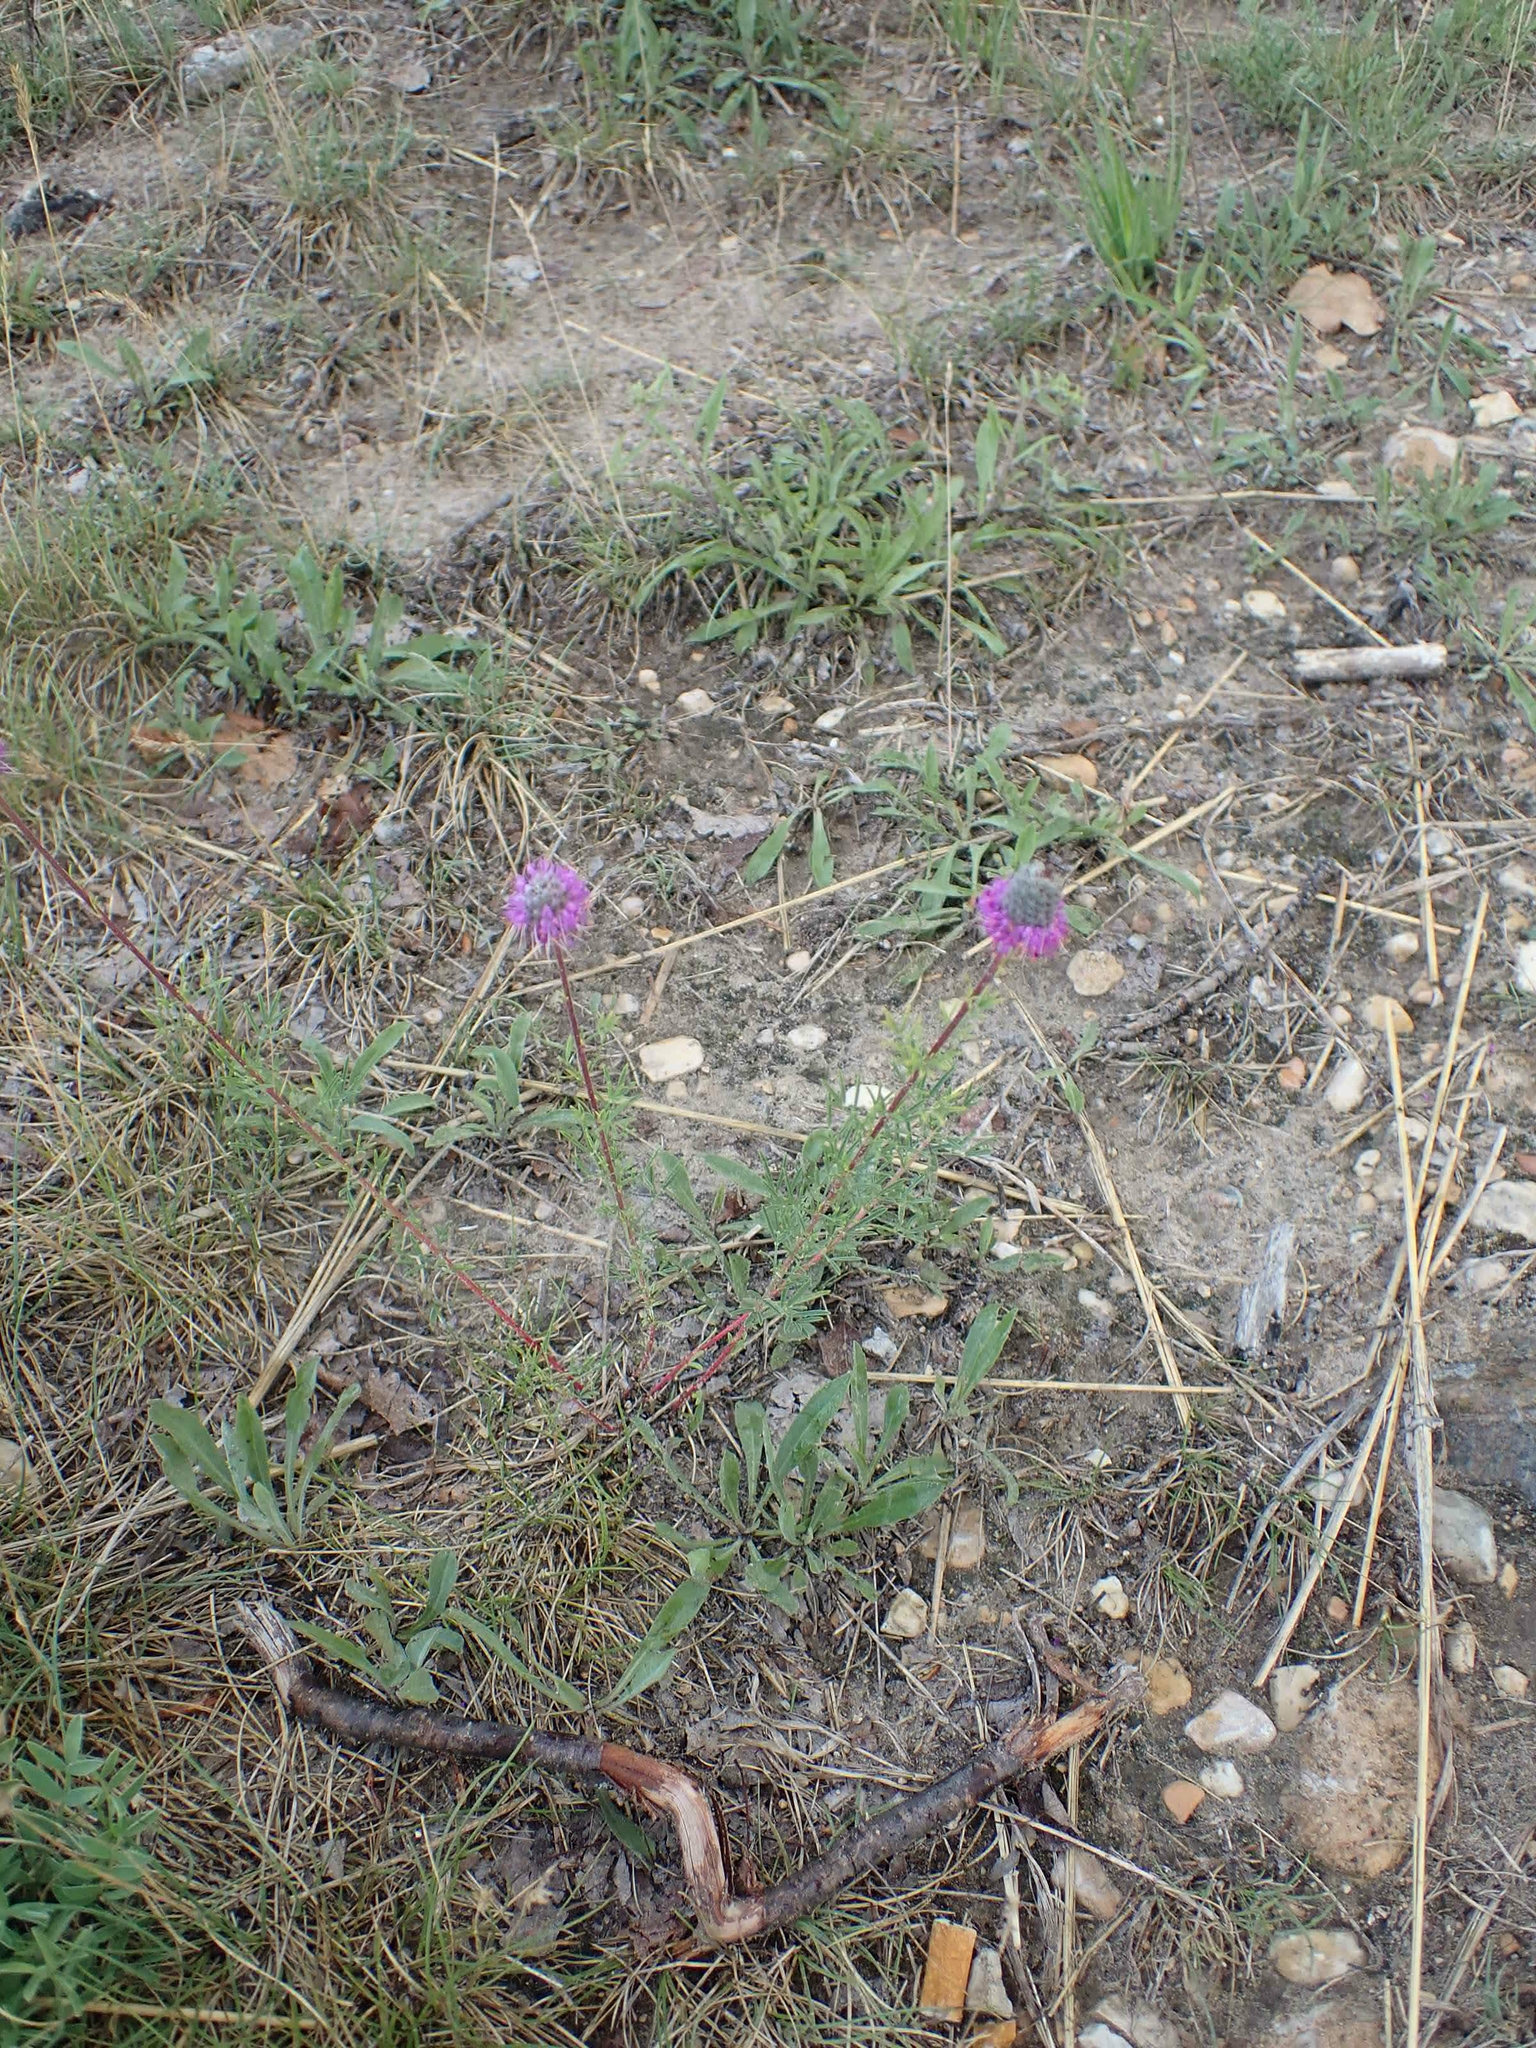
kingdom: Plantae
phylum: Tracheophyta
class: Magnoliopsida
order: Fabales
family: Fabaceae
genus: Dalea
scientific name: Dalea purpurea
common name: Purple prairie-clover
